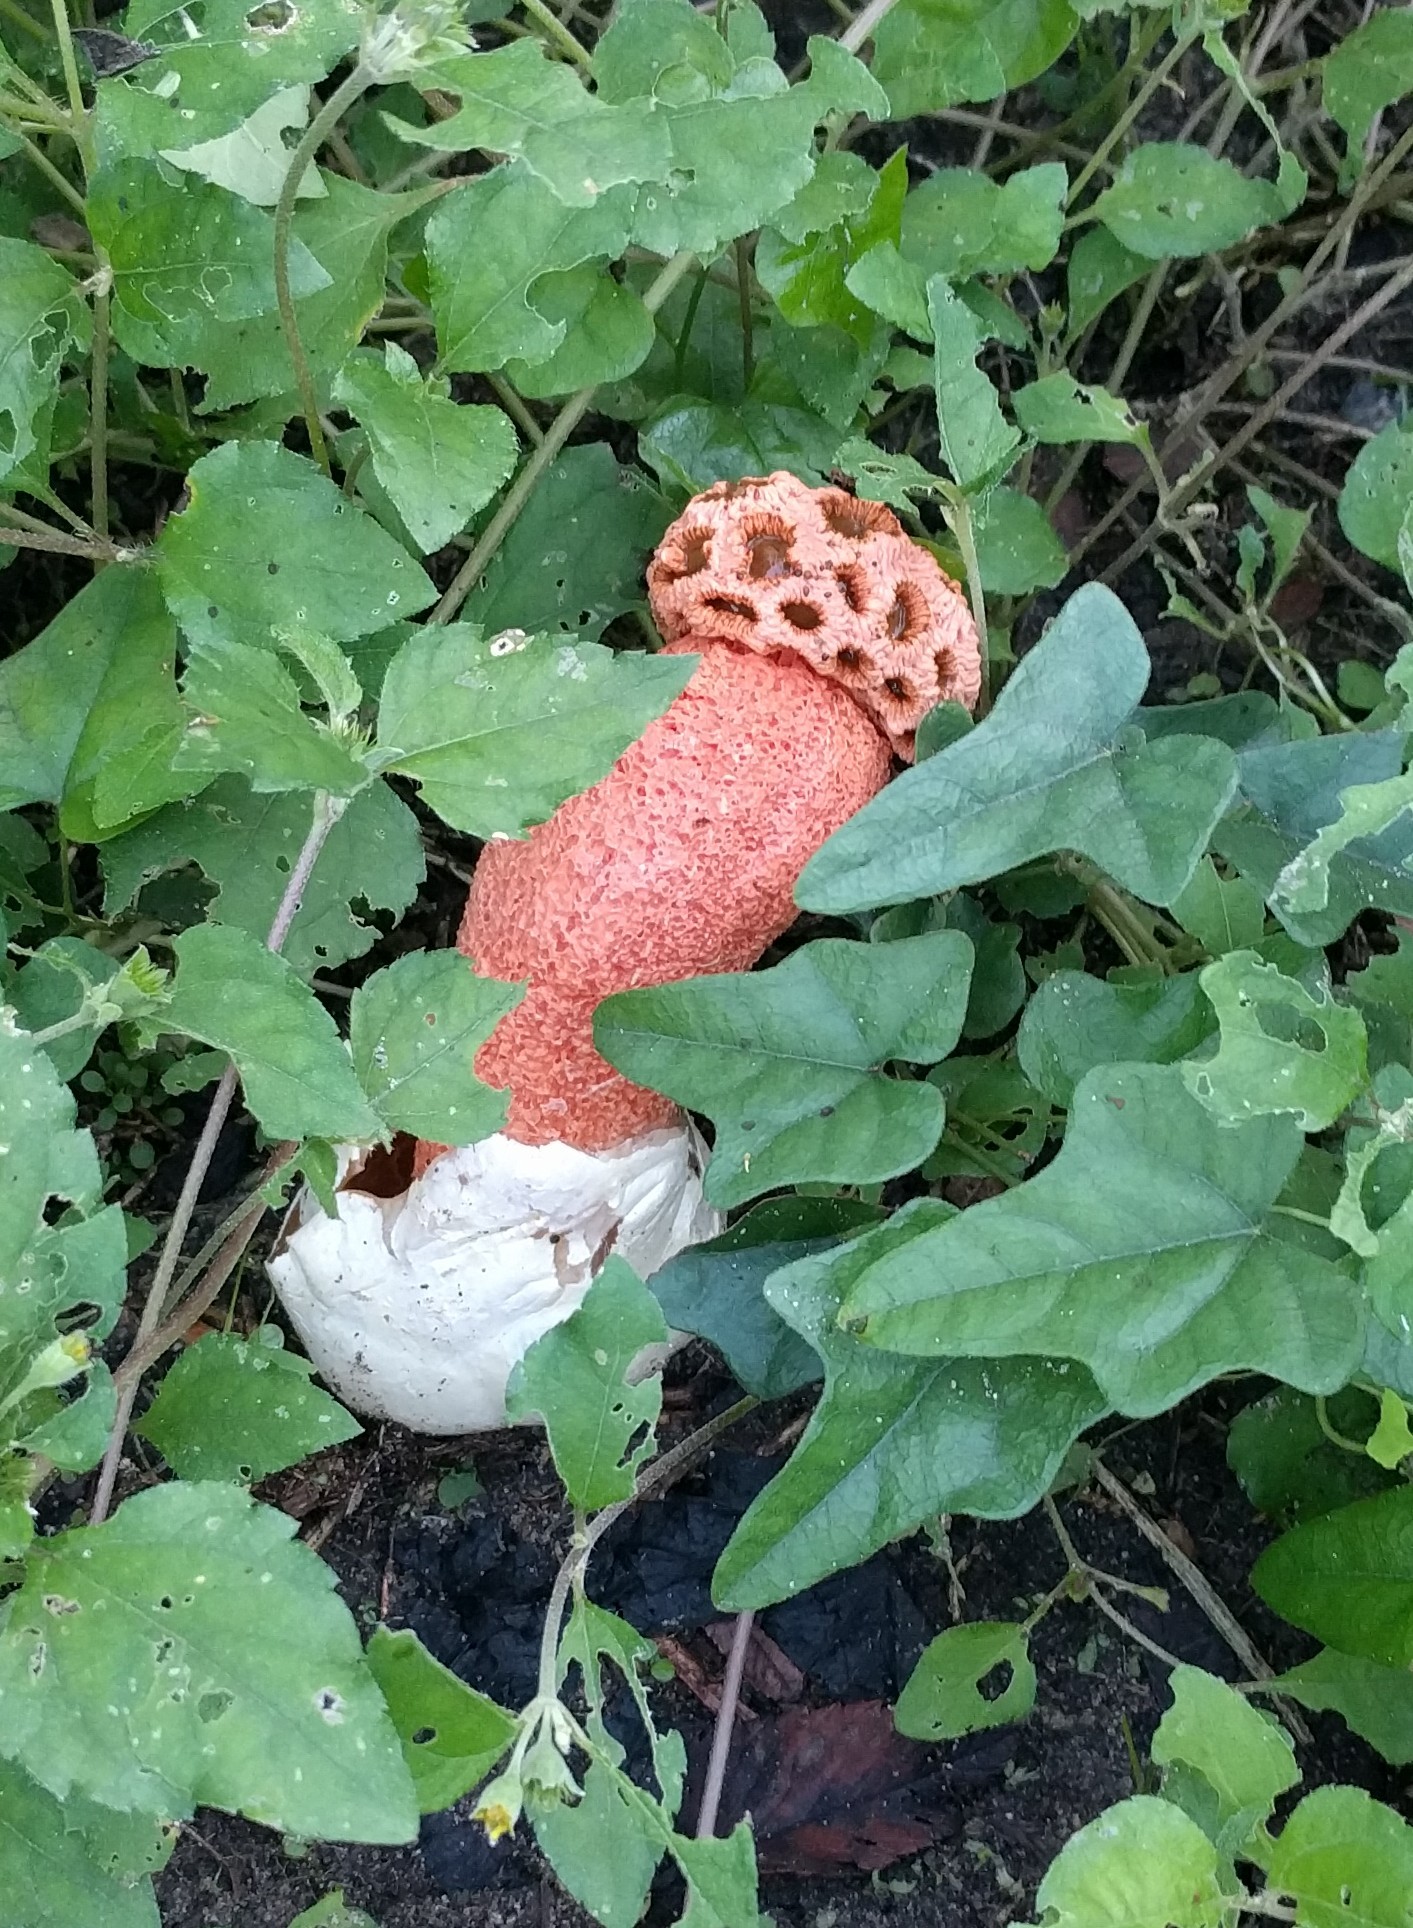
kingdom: Fungi
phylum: Basidiomycota
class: Agaricomycetes
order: Phallales
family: Phallaceae
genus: Lysurus
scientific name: Lysurus periphragmoides
